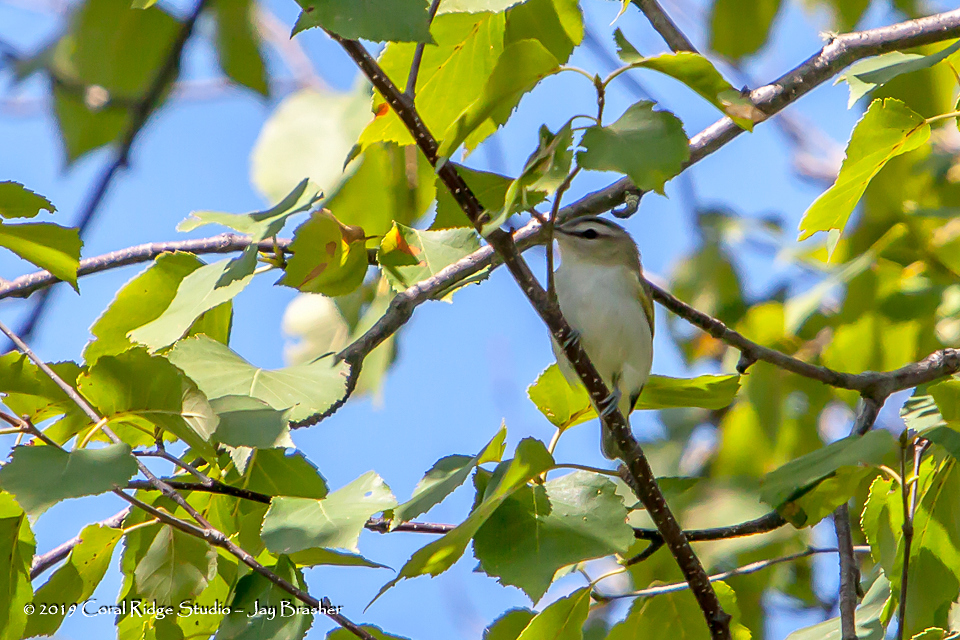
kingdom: Animalia
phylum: Chordata
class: Aves
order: Passeriformes
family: Vireonidae
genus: Vireo
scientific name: Vireo olivaceus
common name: Red-eyed vireo
